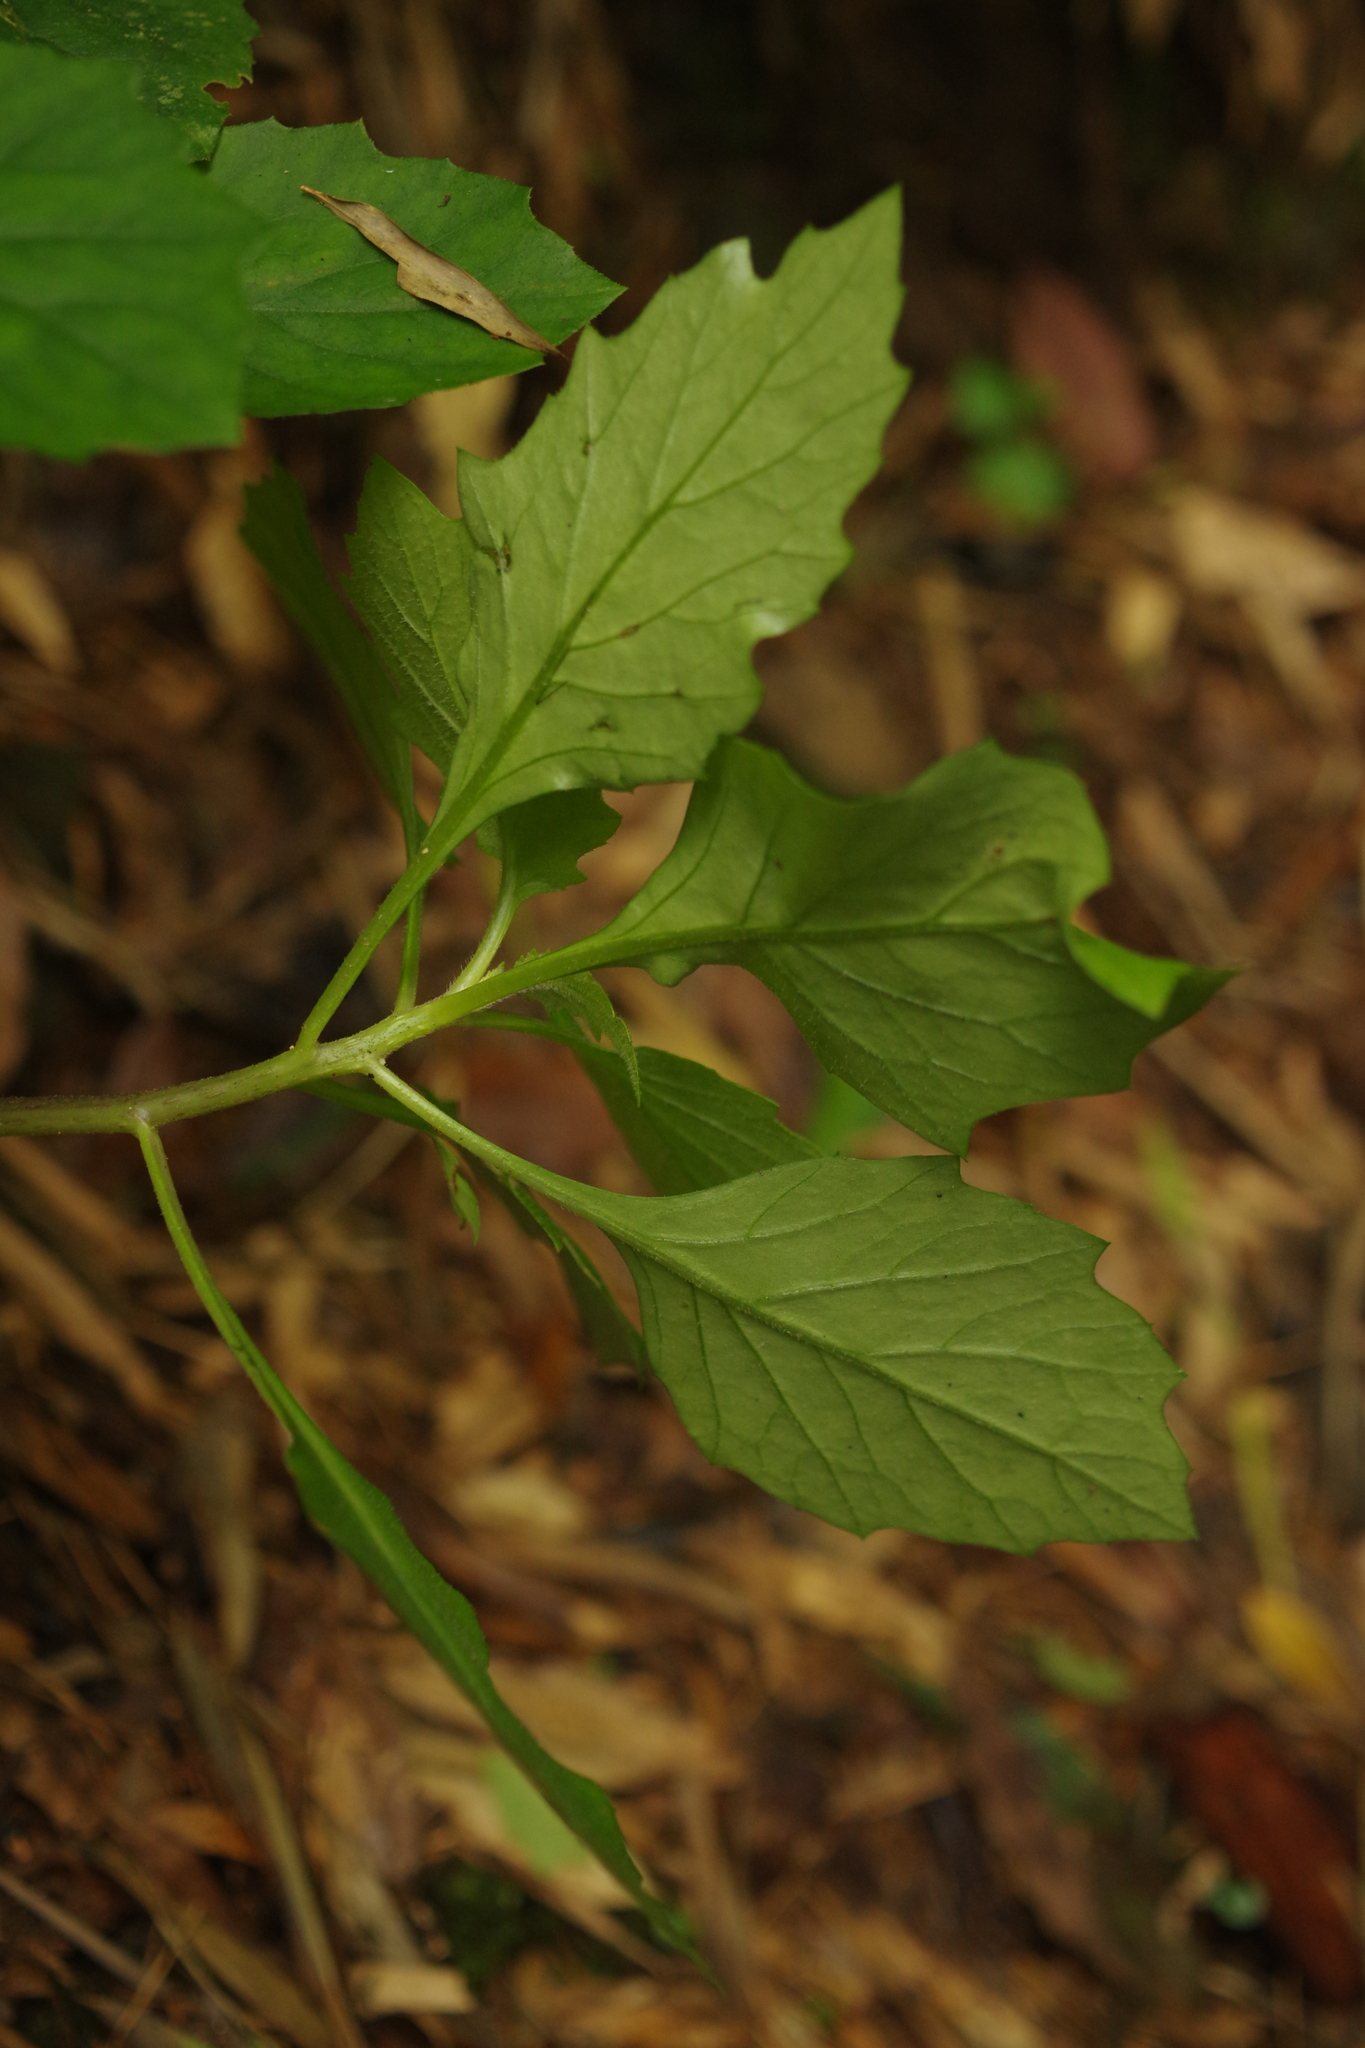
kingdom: Plantae
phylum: Tracheophyta
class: Magnoliopsida
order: Asterales
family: Asteraceae
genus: Gynura
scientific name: Gynura japonica
